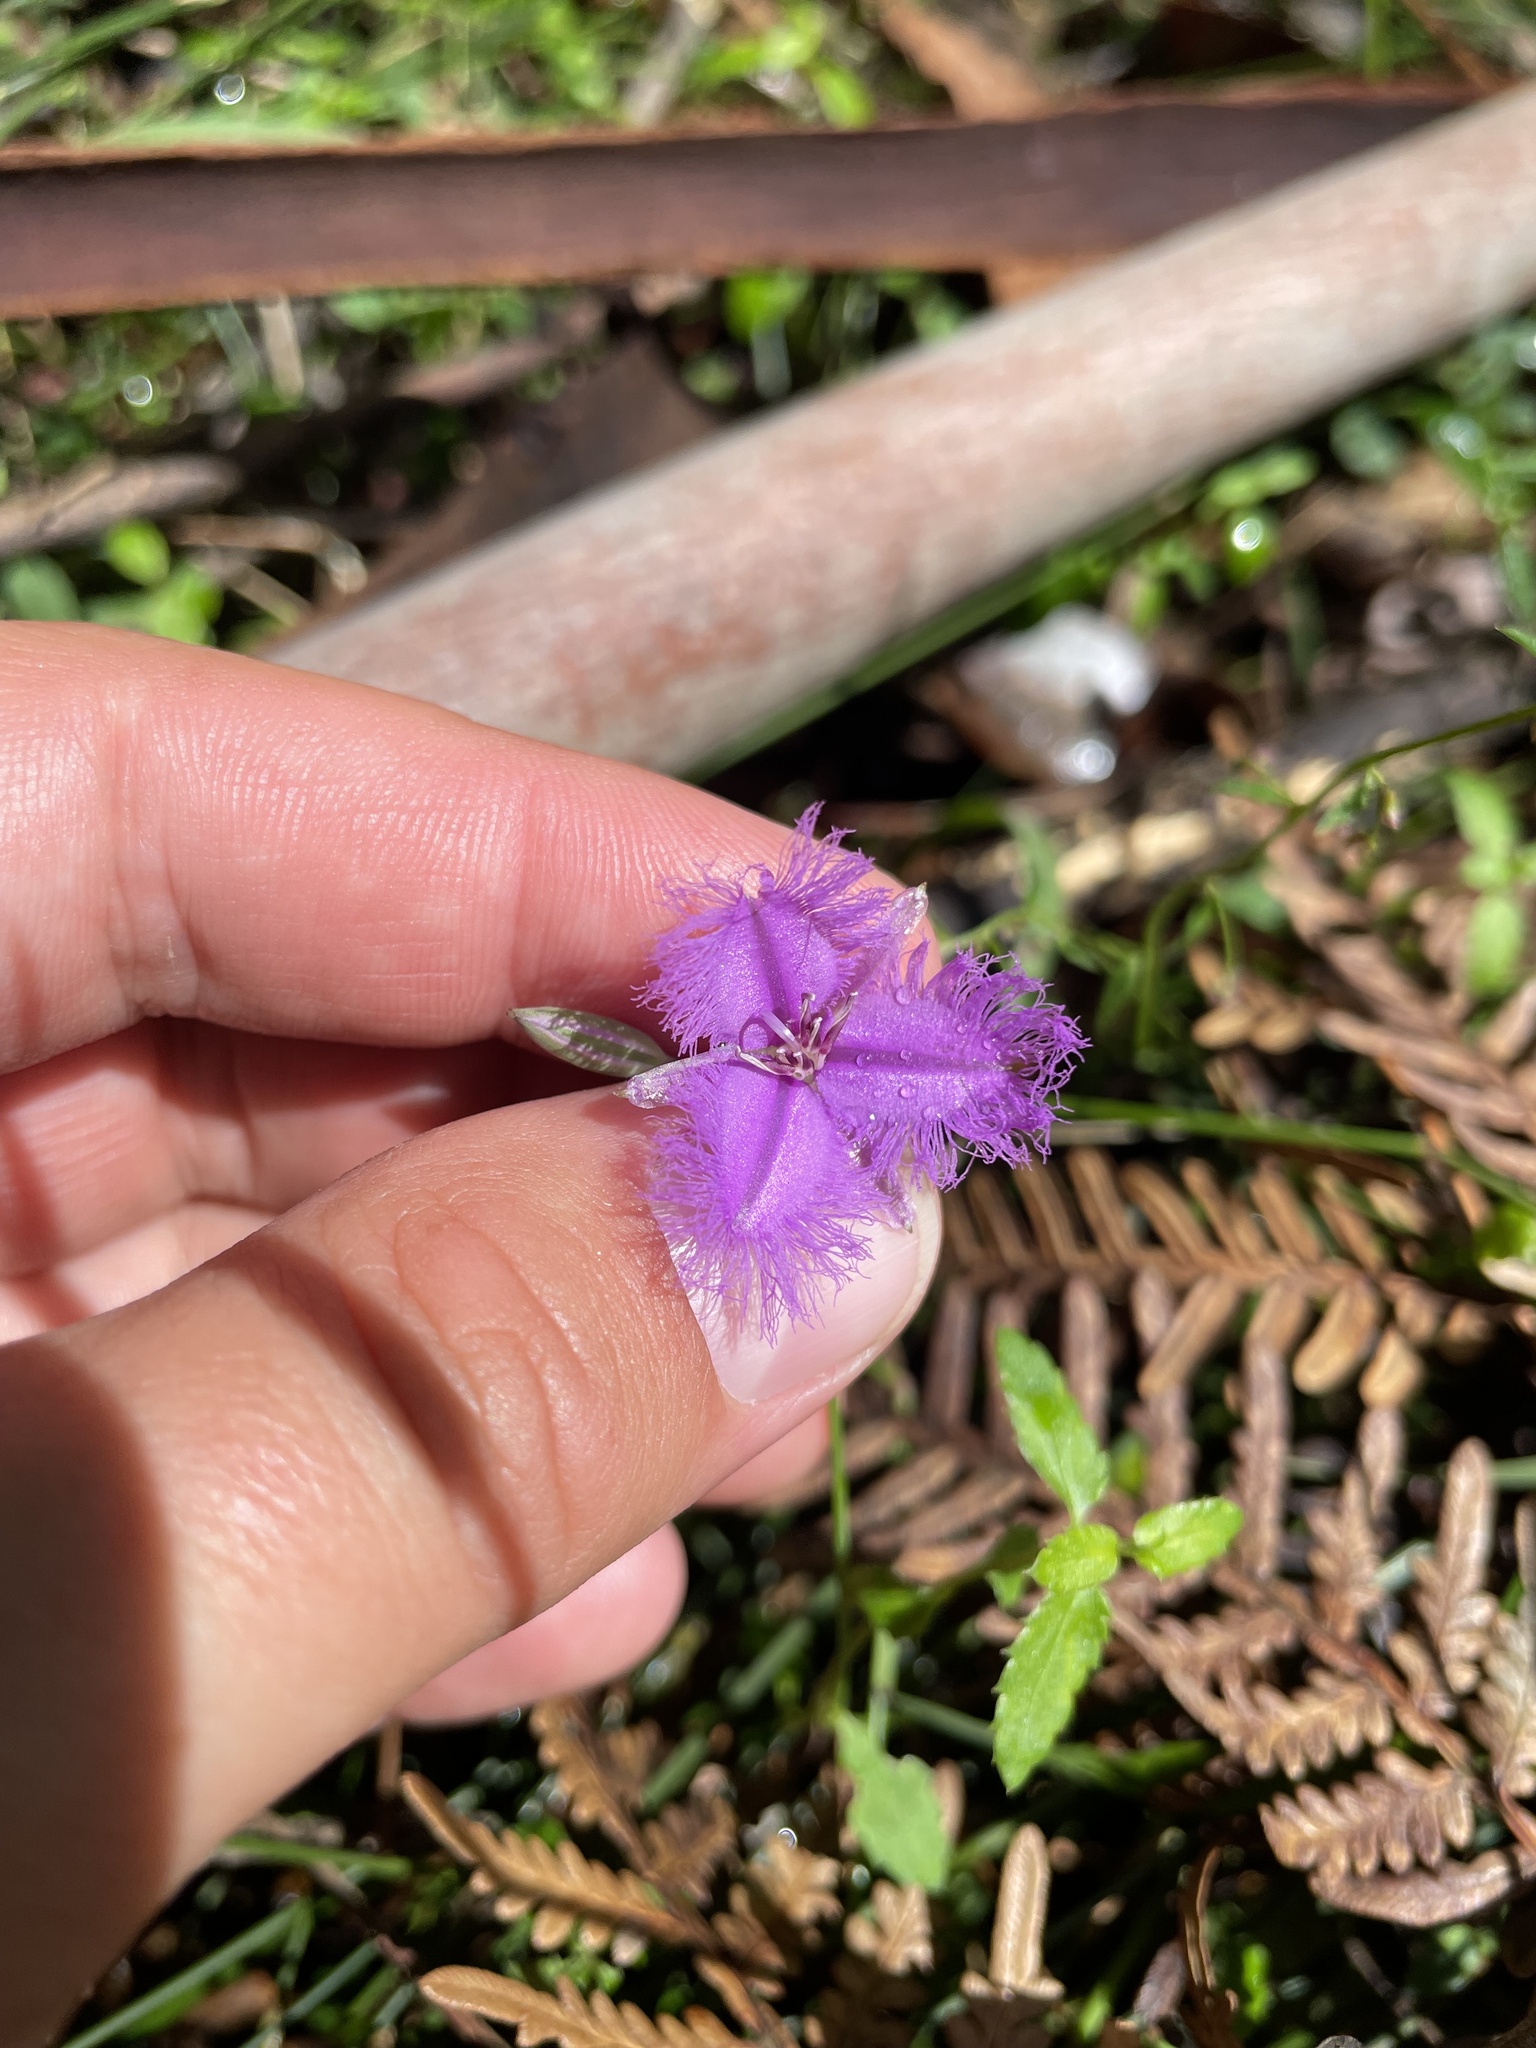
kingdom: Plantae
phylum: Tracheophyta
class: Liliopsida
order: Asparagales
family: Asparagaceae
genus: Thysanotus
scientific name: Thysanotus tuberosus
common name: Common fringed-lily
